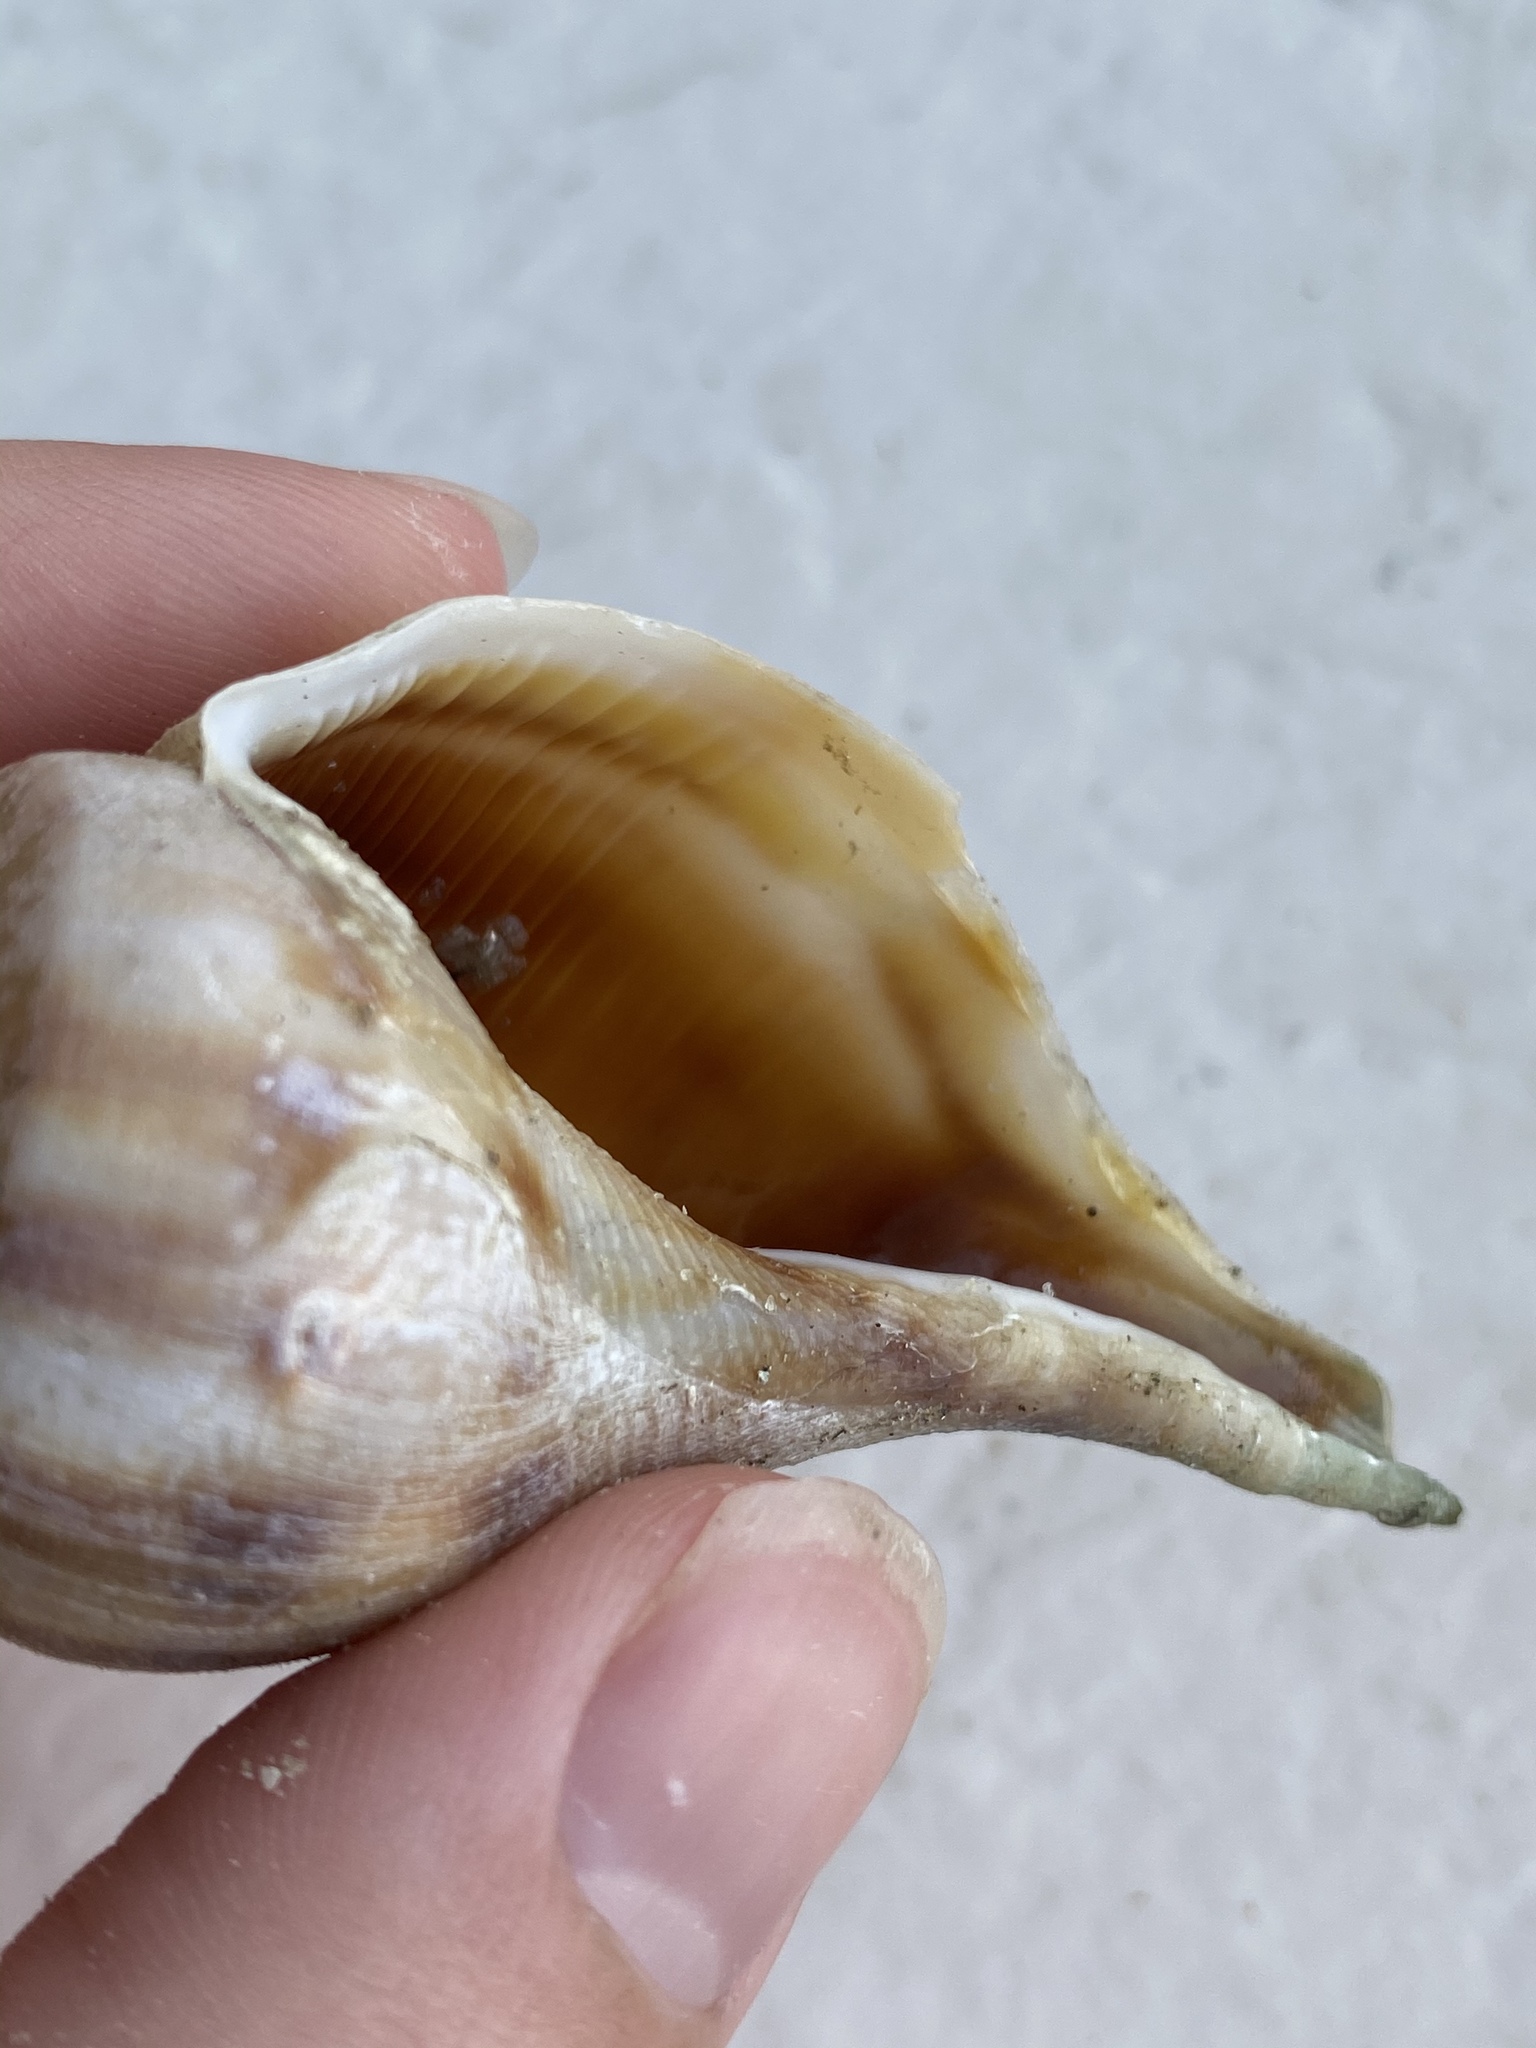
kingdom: Animalia
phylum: Mollusca
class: Gastropoda
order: Neogastropoda
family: Busyconidae
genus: Fulguropsis
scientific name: Fulguropsis pyruloides
